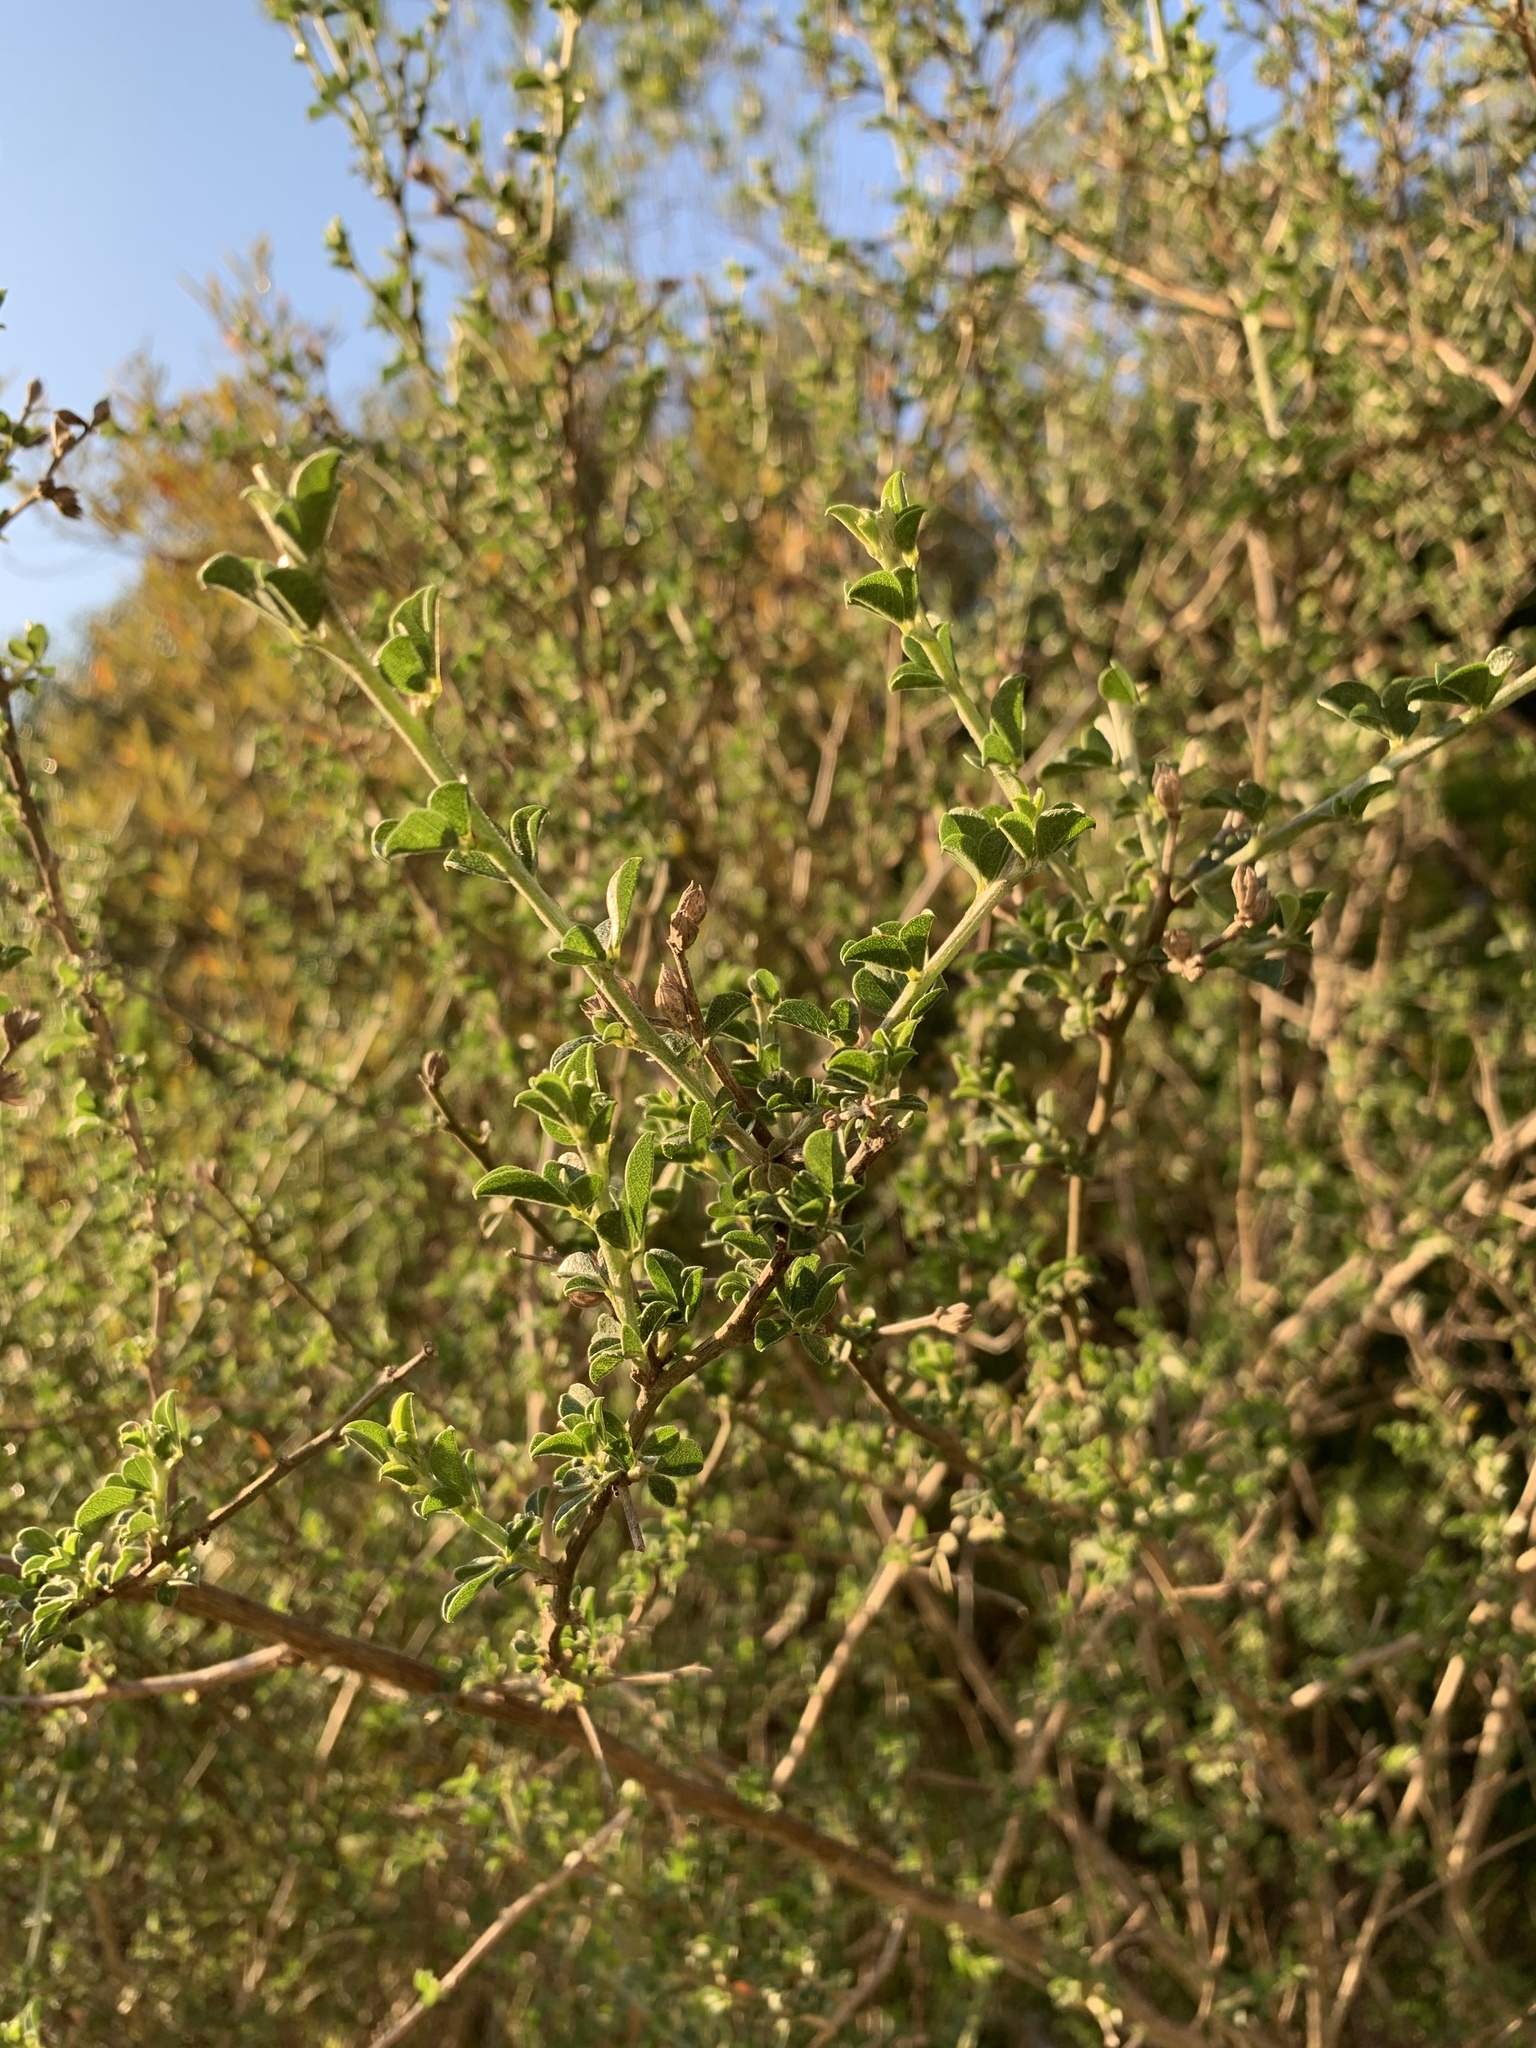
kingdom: Plantae
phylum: Tracheophyta
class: Magnoliopsida
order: Fabales
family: Fabaceae
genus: Psoralea
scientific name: Psoralea hirta
